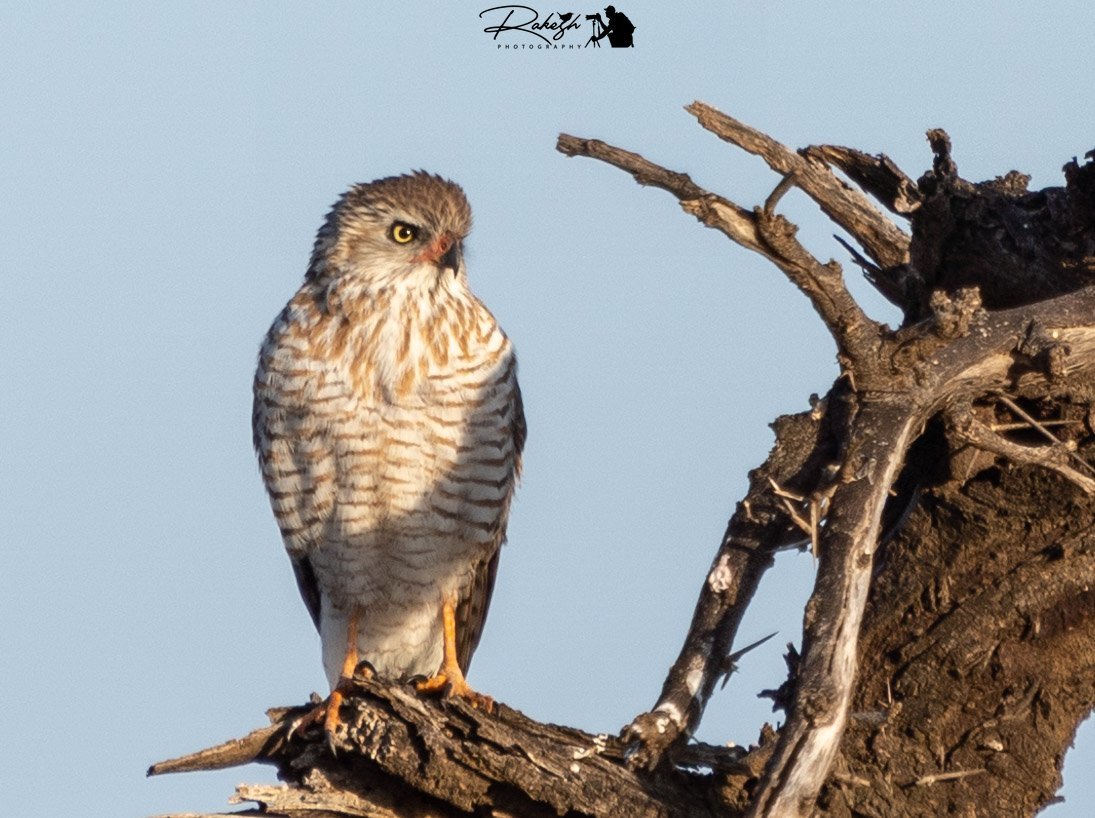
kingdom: Animalia
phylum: Chordata
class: Aves
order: Accipitriformes
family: Accipitridae
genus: Micronisus
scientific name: Micronisus gabar
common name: Gabar goshawk
